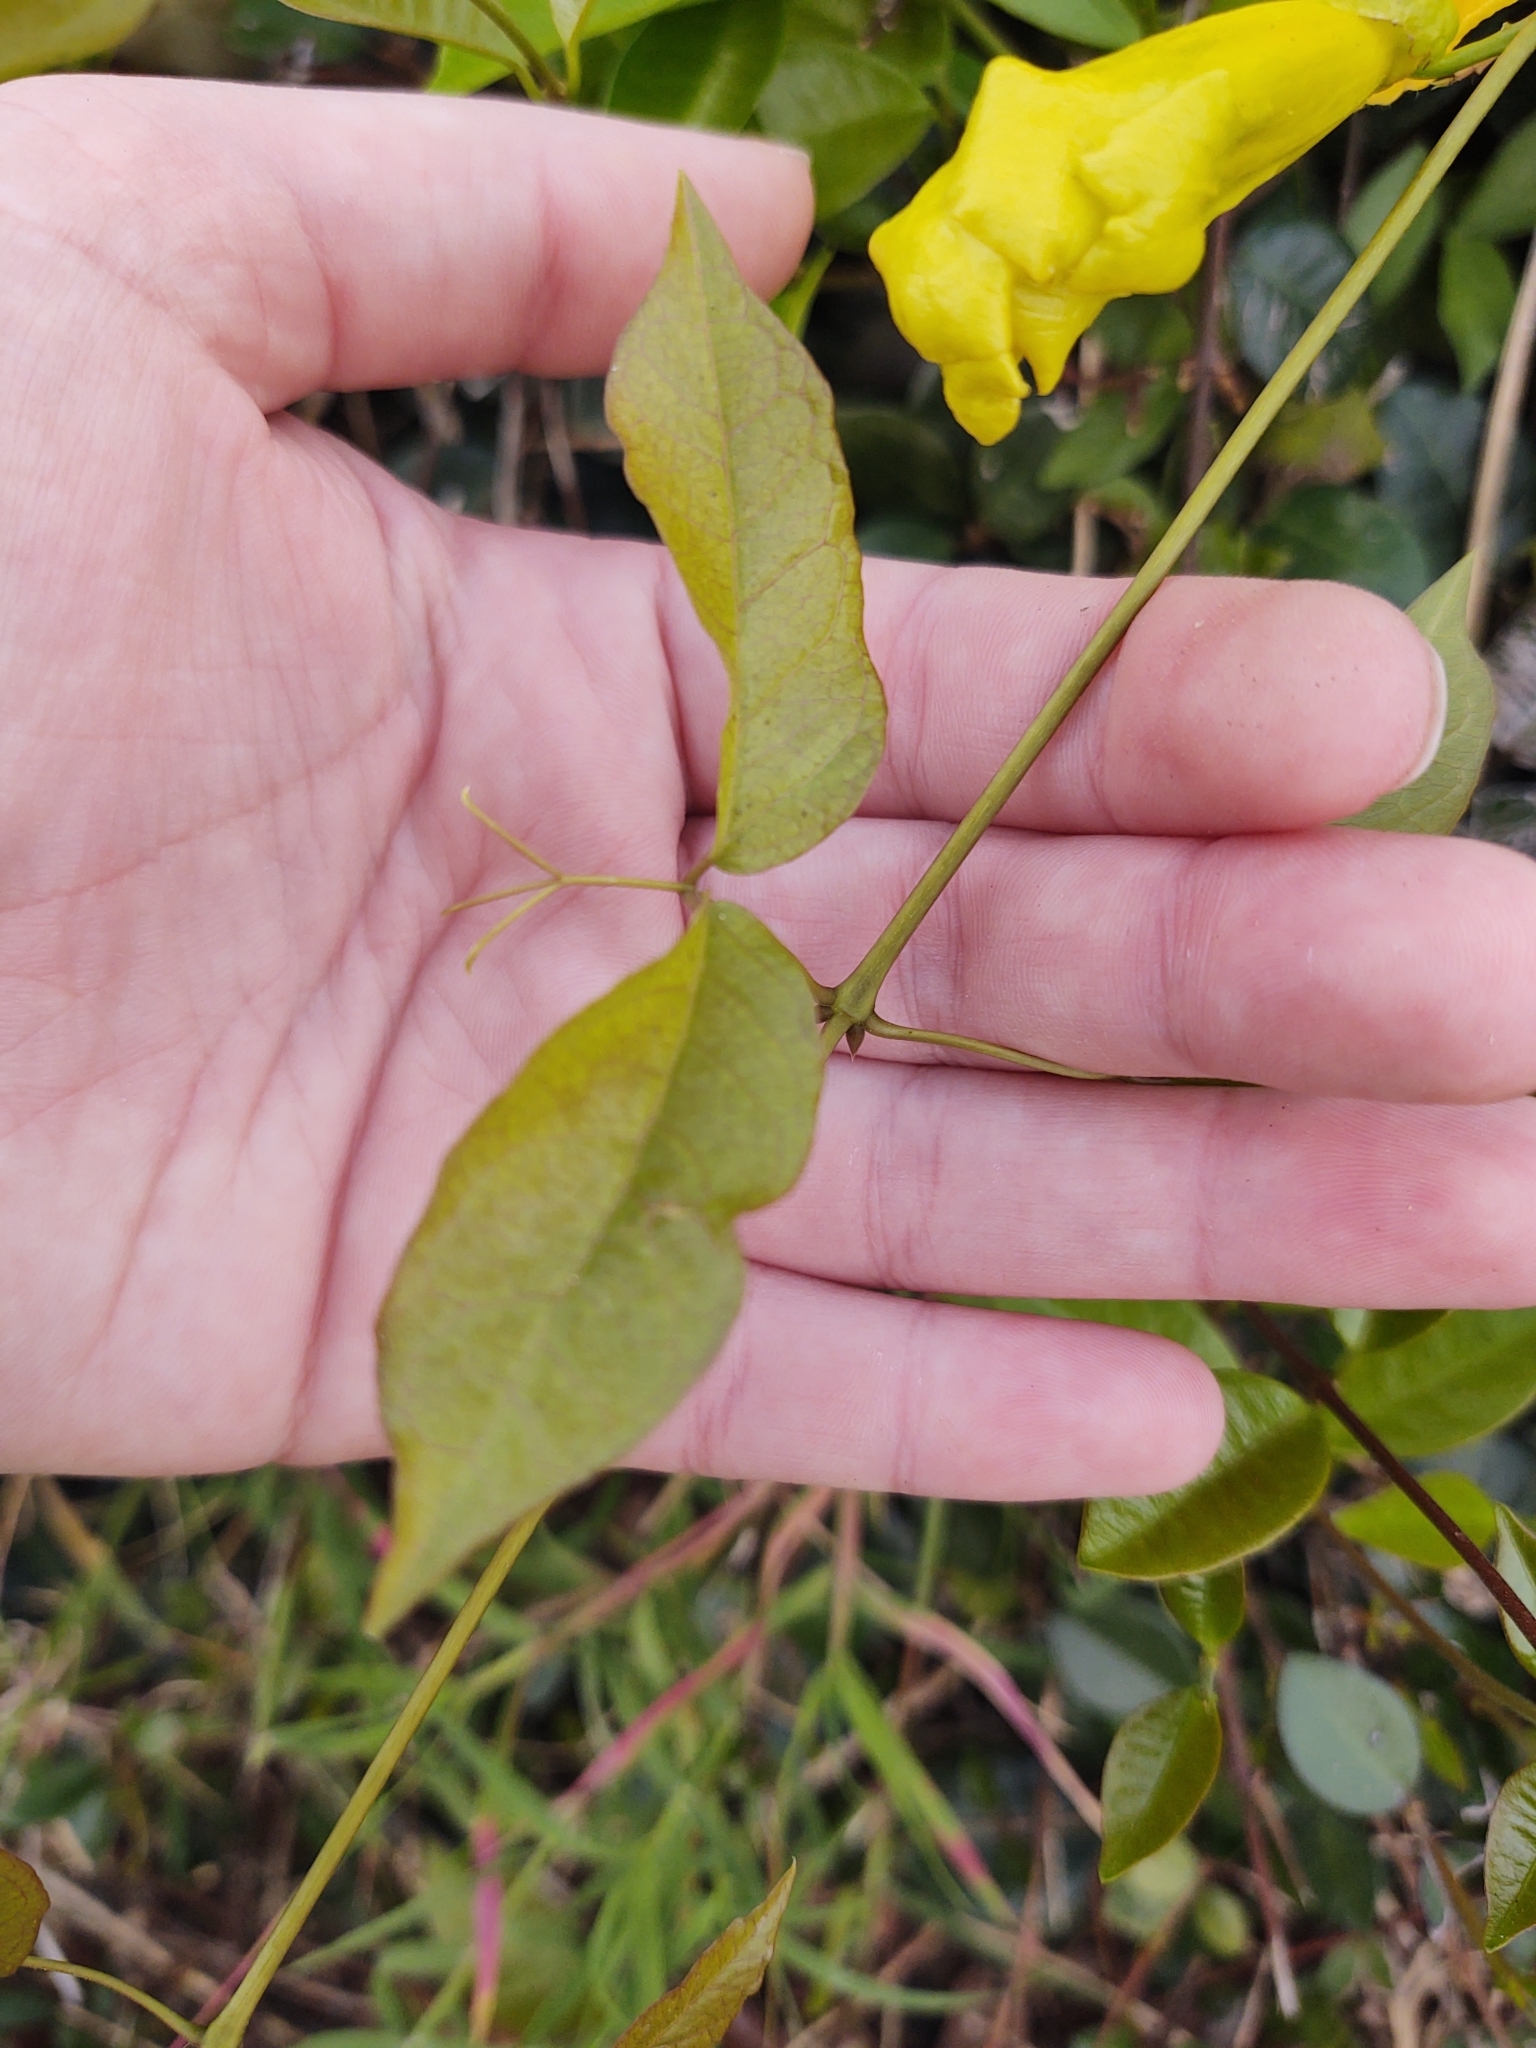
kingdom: Plantae
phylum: Tracheophyta
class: Magnoliopsida
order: Lamiales
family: Bignoniaceae
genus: Dolichandra
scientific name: Dolichandra unguis-cati
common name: Catclaw vine
